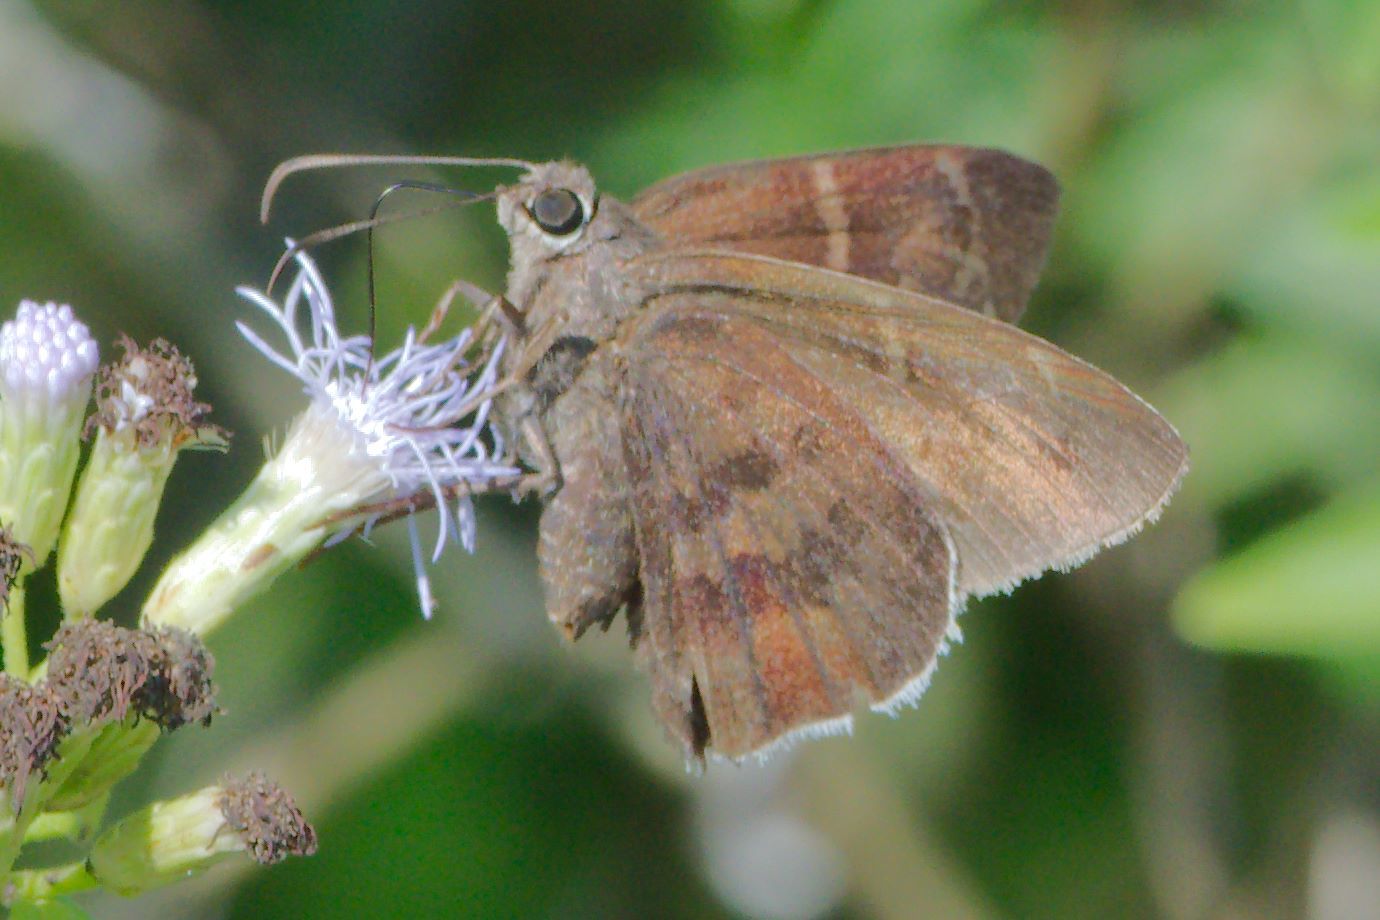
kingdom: Animalia
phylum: Arthropoda
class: Insecta
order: Lepidoptera
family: Hesperiidae
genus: Achalarus
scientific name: Achalarus Murgaria albociliatus
